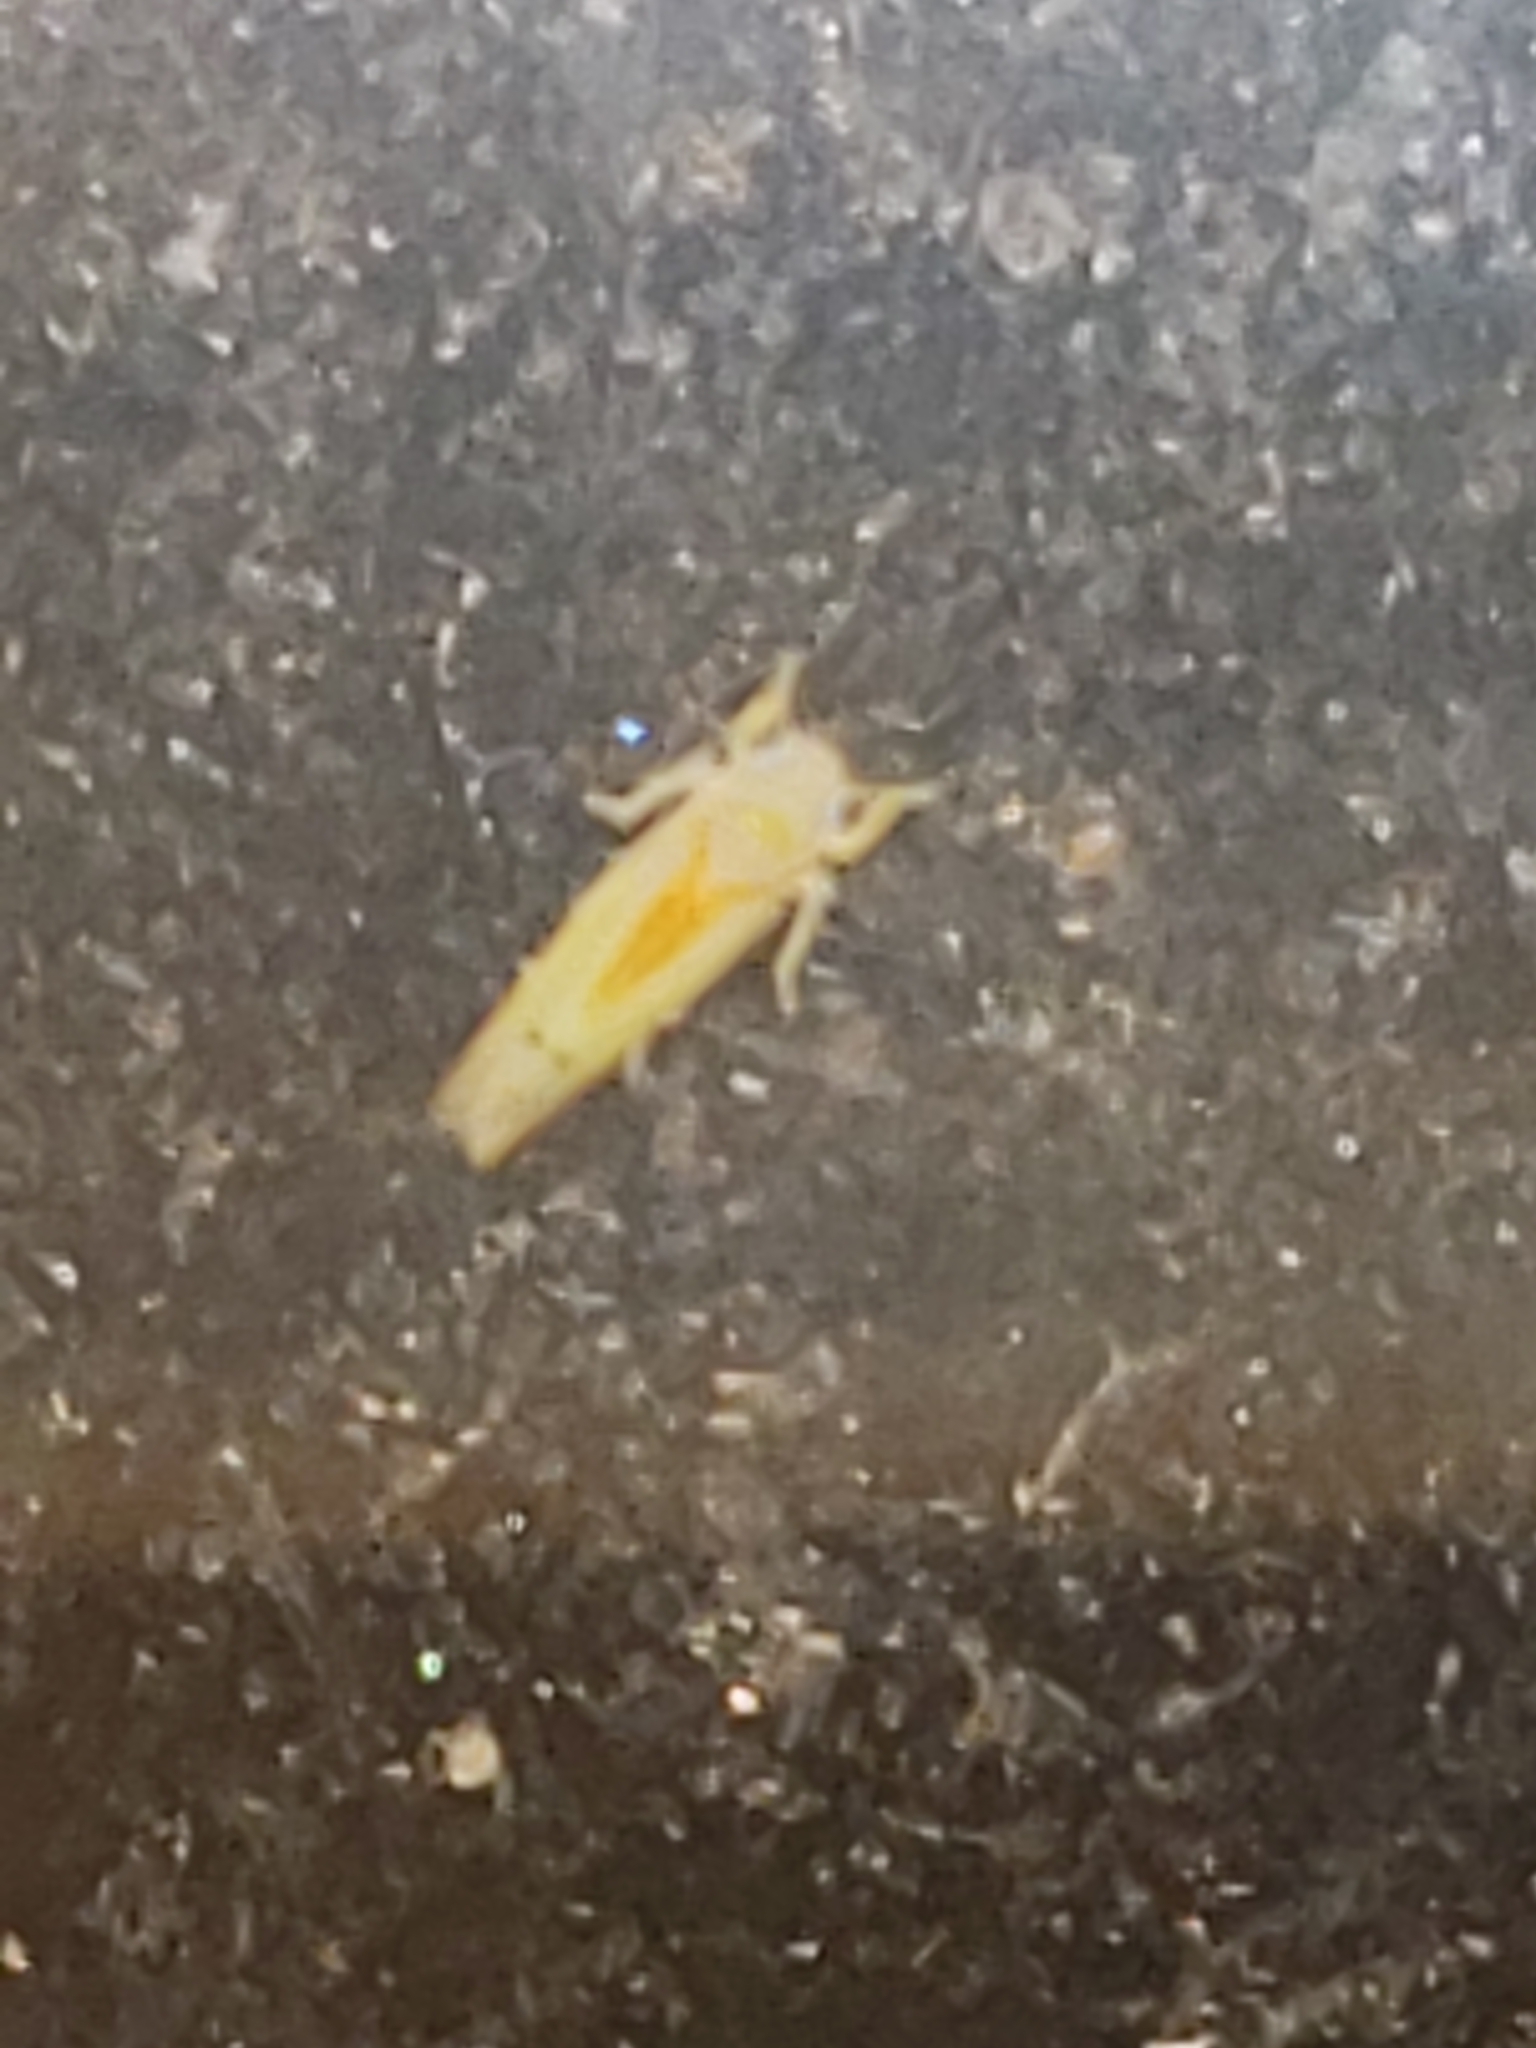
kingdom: Animalia
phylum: Arthropoda
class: Insecta
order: Hemiptera
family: Cicadellidae
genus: Ossiannilssonola
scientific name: Ossiannilssonola australis
